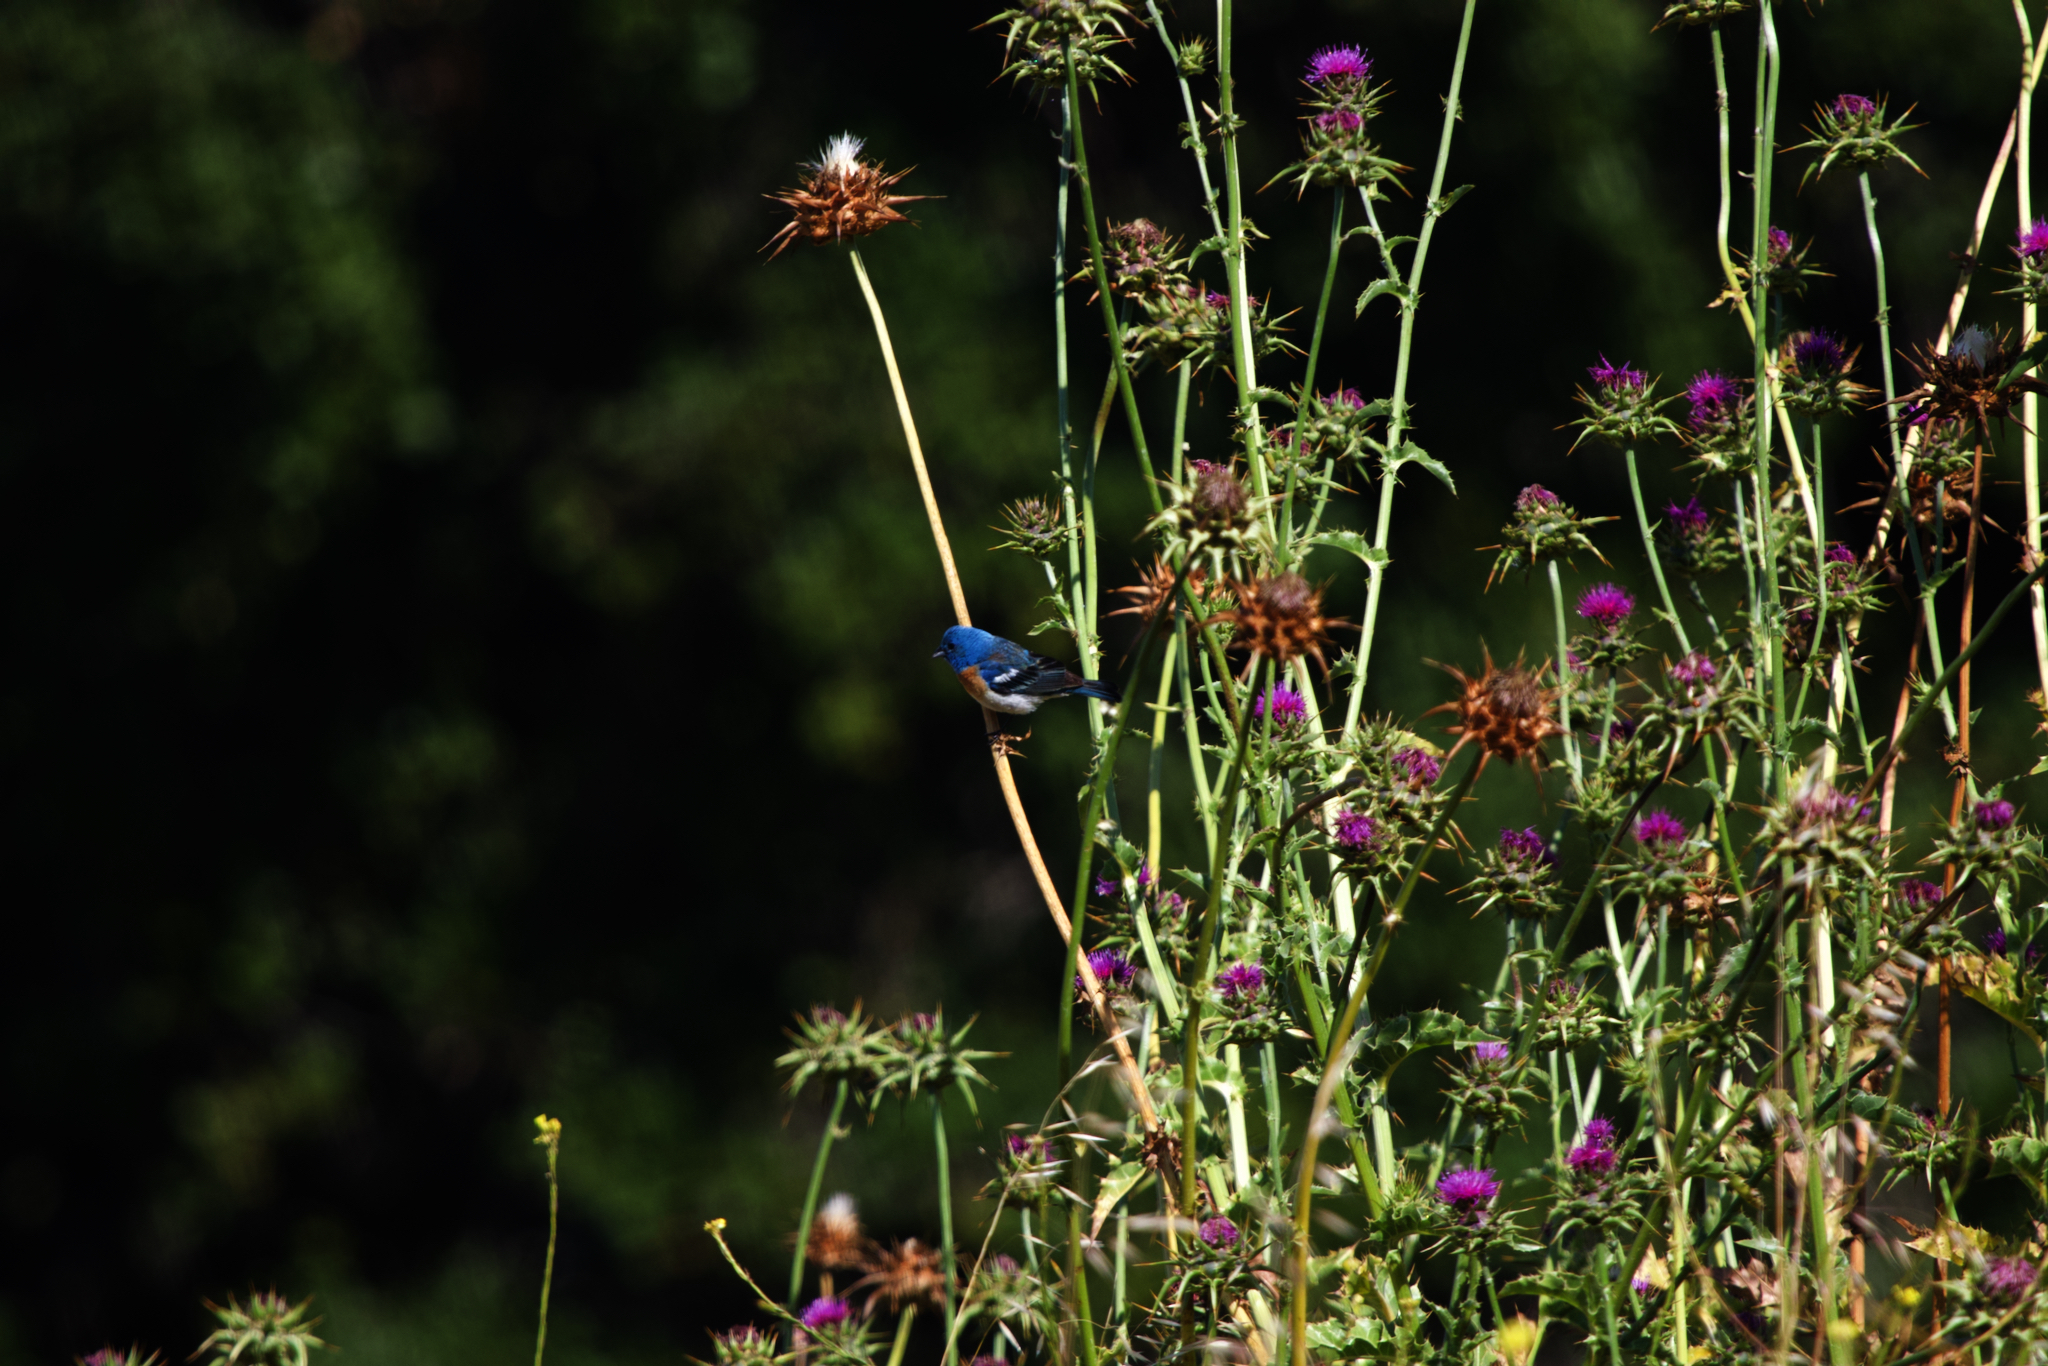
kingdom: Animalia
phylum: Chordata
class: Aves
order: Passeriformes
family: Cardinalidae
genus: Passerina
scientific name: Passerina amoena
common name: Lazuli bunting
